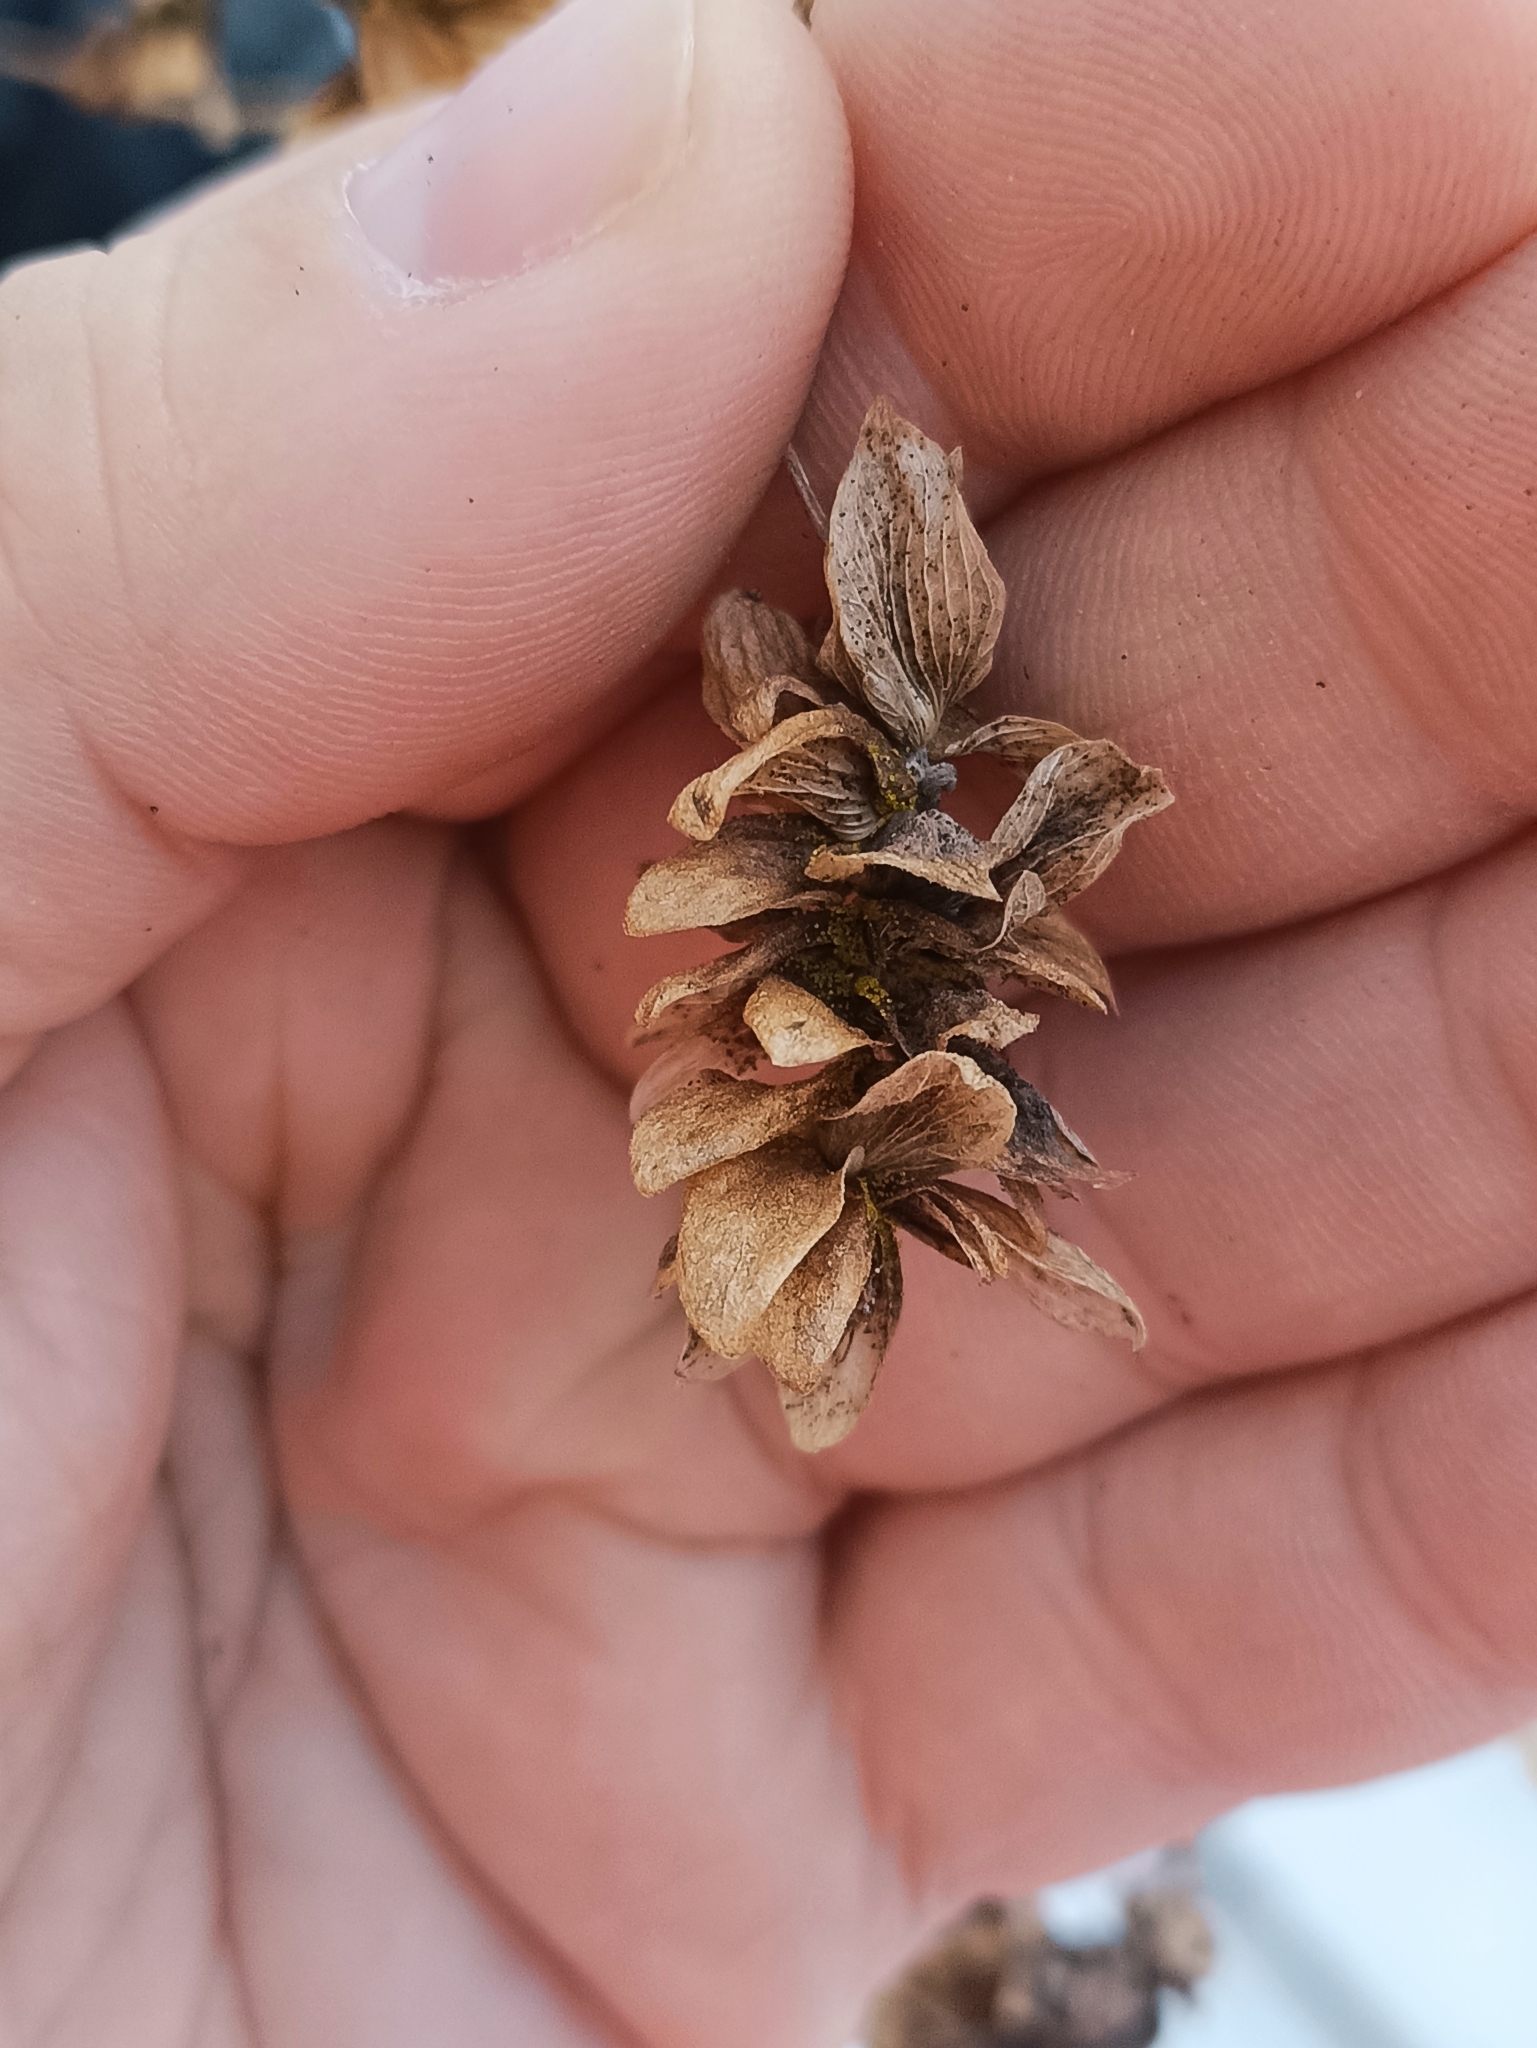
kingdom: Plantae
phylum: Tracheophyta
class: Magnoliopsida
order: Rosales
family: Cannabaceae
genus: Humulus
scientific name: Humulus lupulus
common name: Hop
